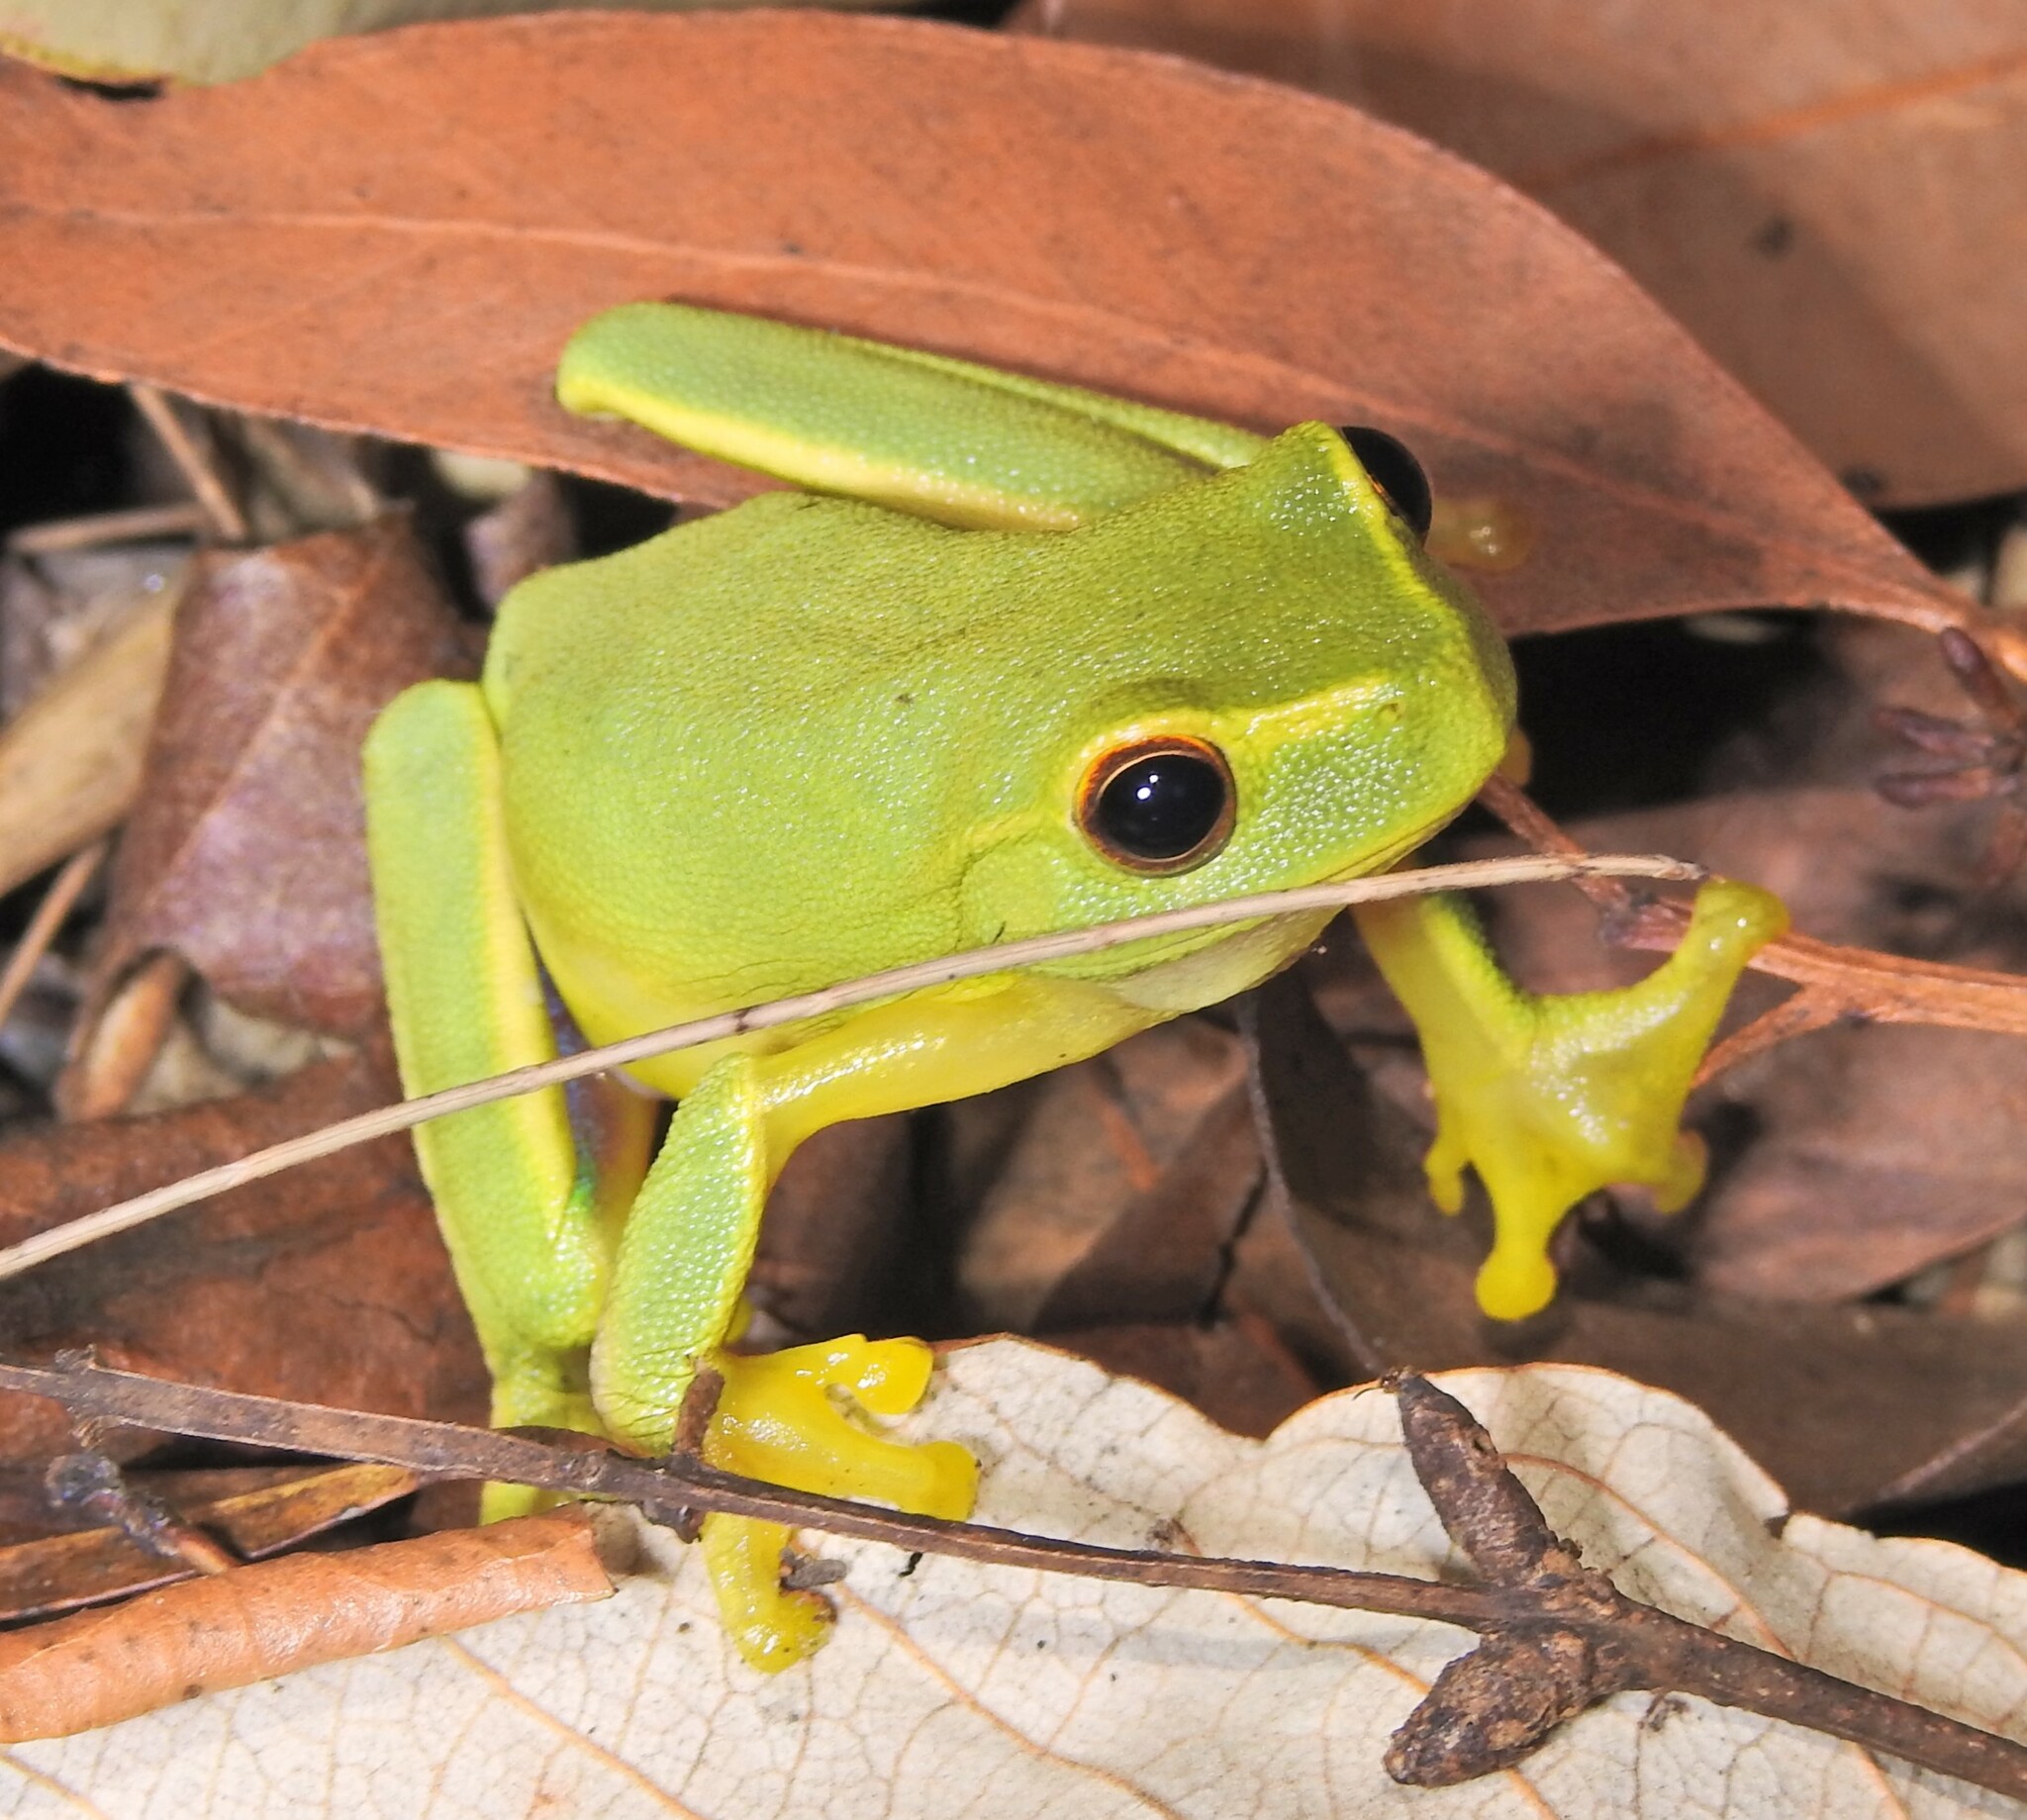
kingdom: Animalia
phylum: Chordata
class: Amphibia
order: Anura
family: Pelodryadidae
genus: Ranoidea
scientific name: Ranoidea gracilenta
